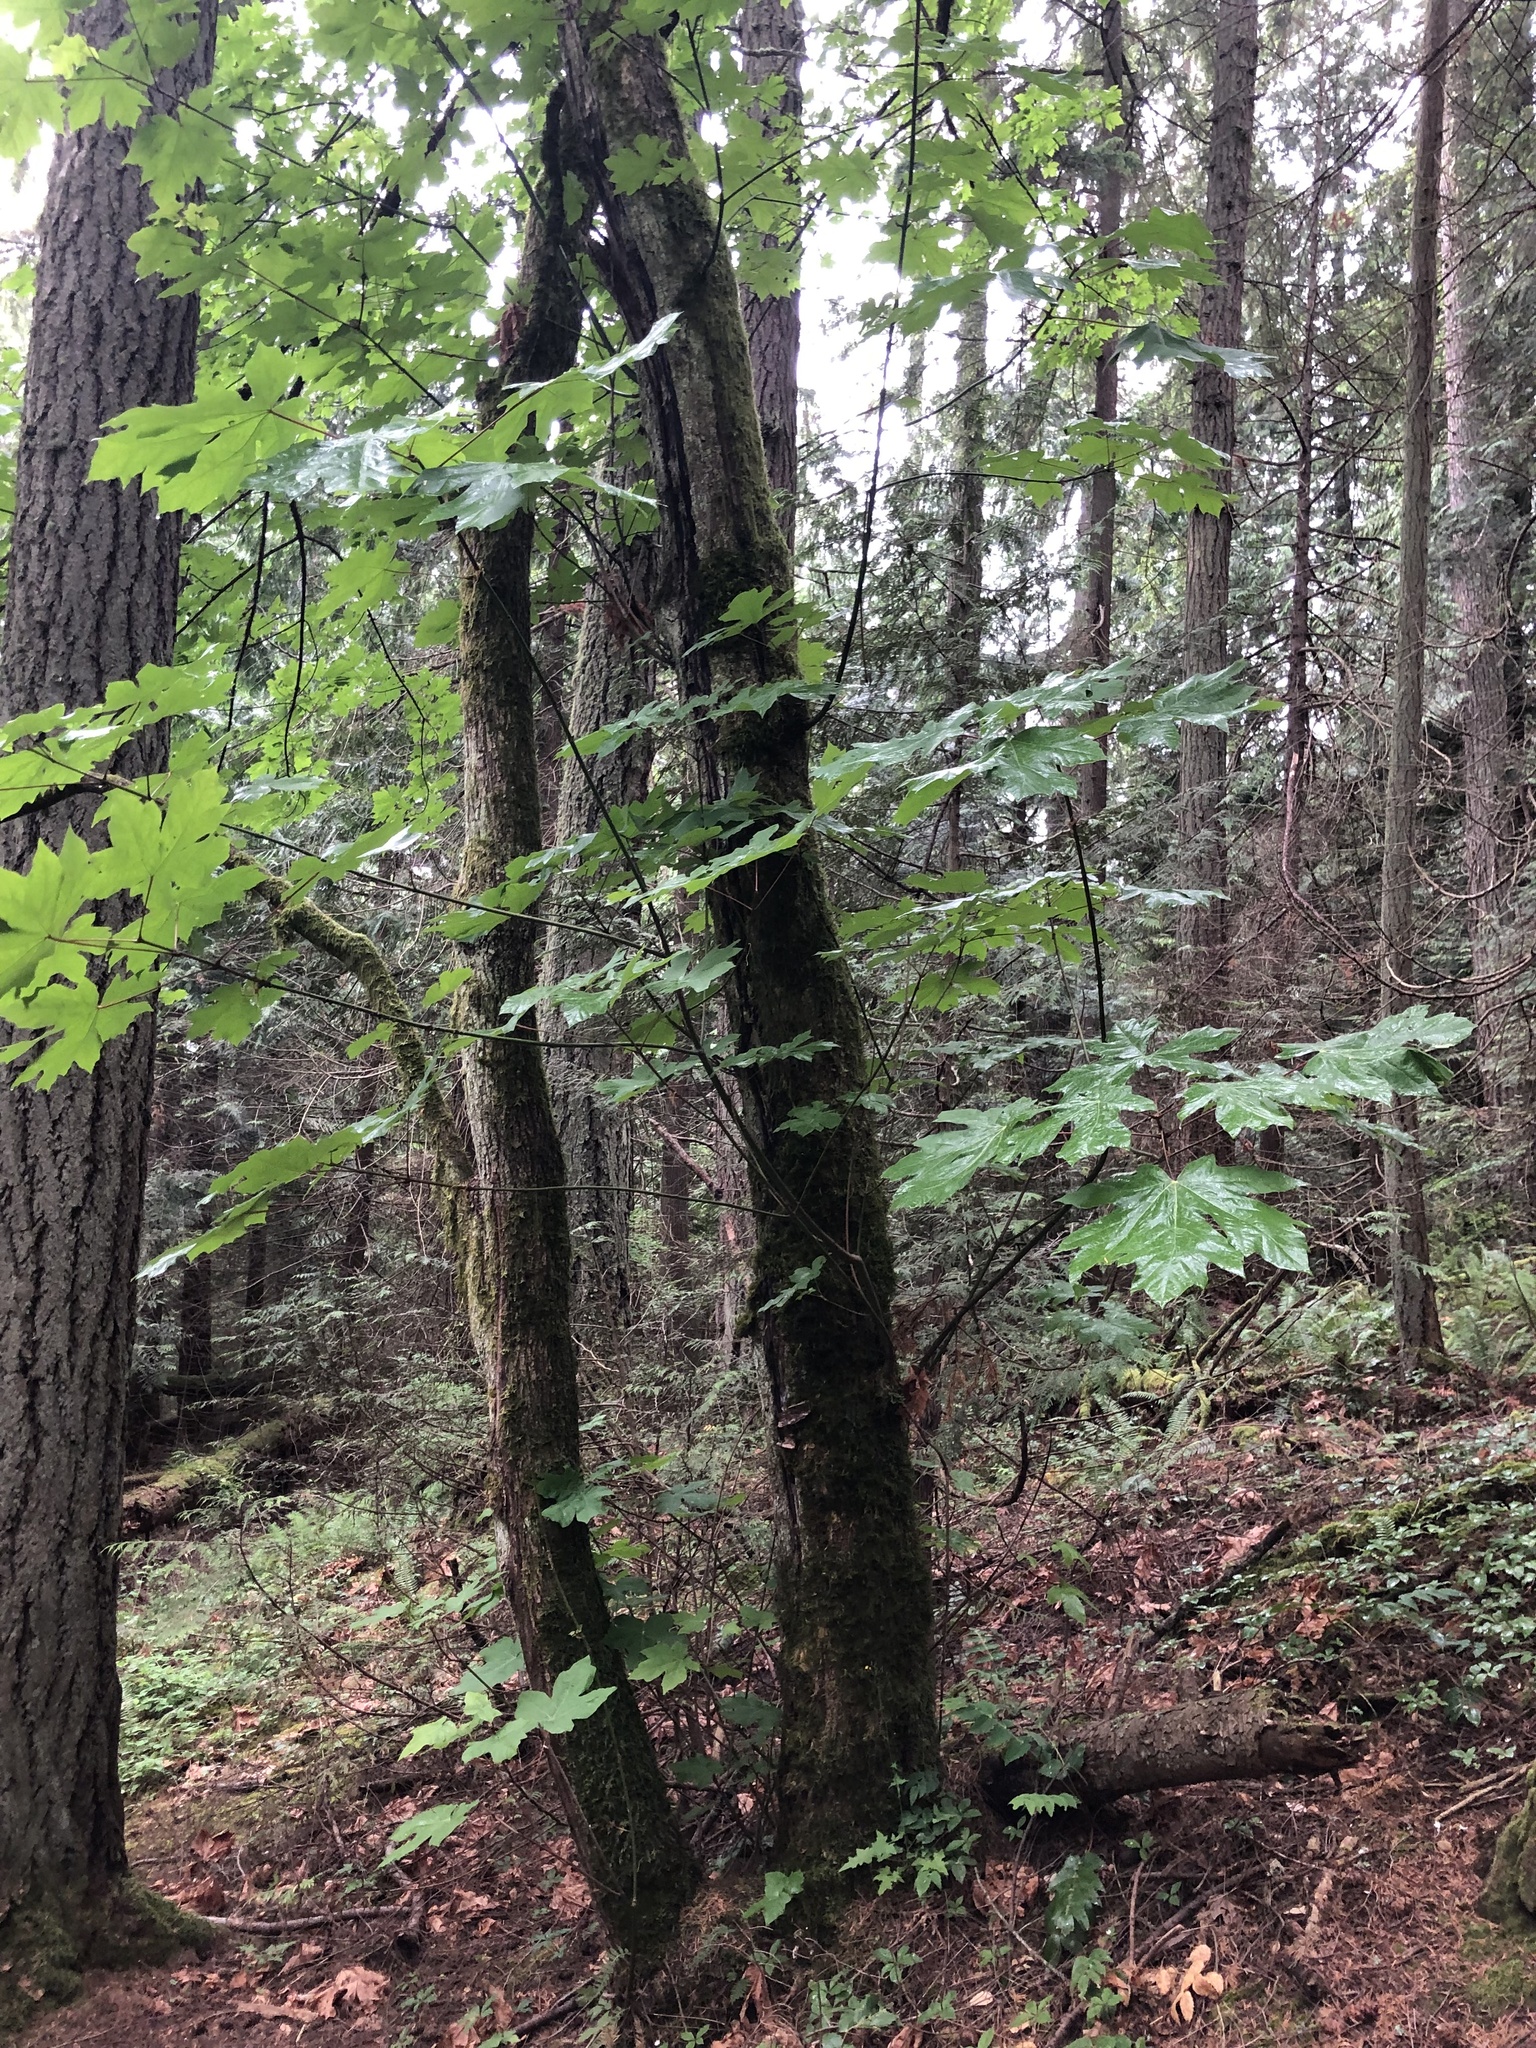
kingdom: Plantae
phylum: Tracheophyta
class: Magnoliopsida
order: Sapindales
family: Sapindaceae
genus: Acer
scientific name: Acer macrophyllum
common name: Oregon maple
